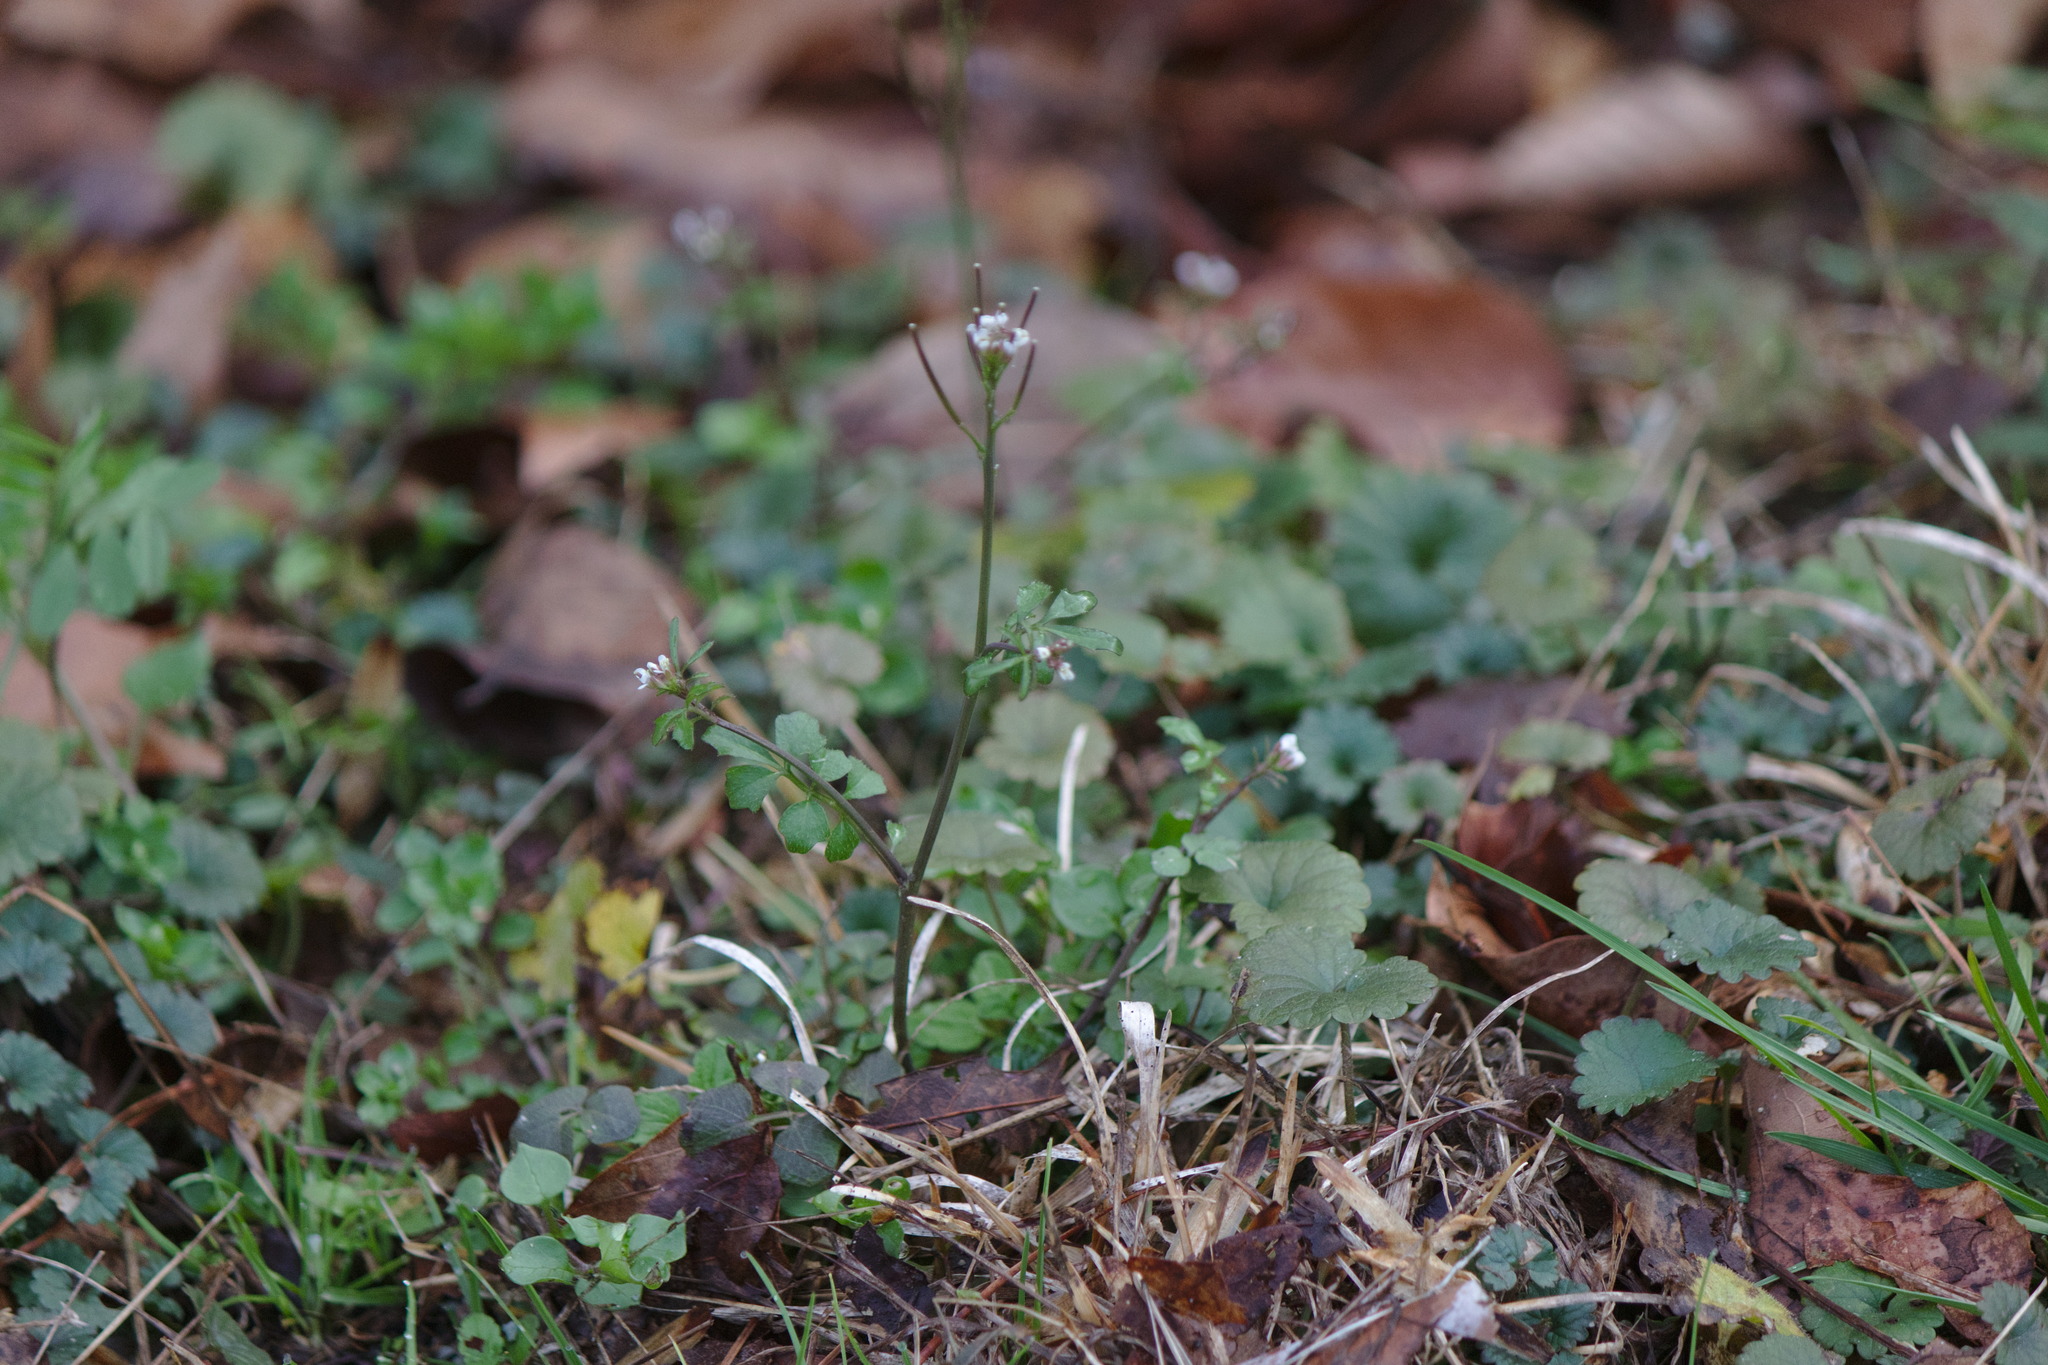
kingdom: Plantae
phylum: Tracheophyta
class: Magnoliopsida
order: Brassicales
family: Brassicaceae
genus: Cardamine
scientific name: Cardamine hirsuta
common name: Hairy bittercress
